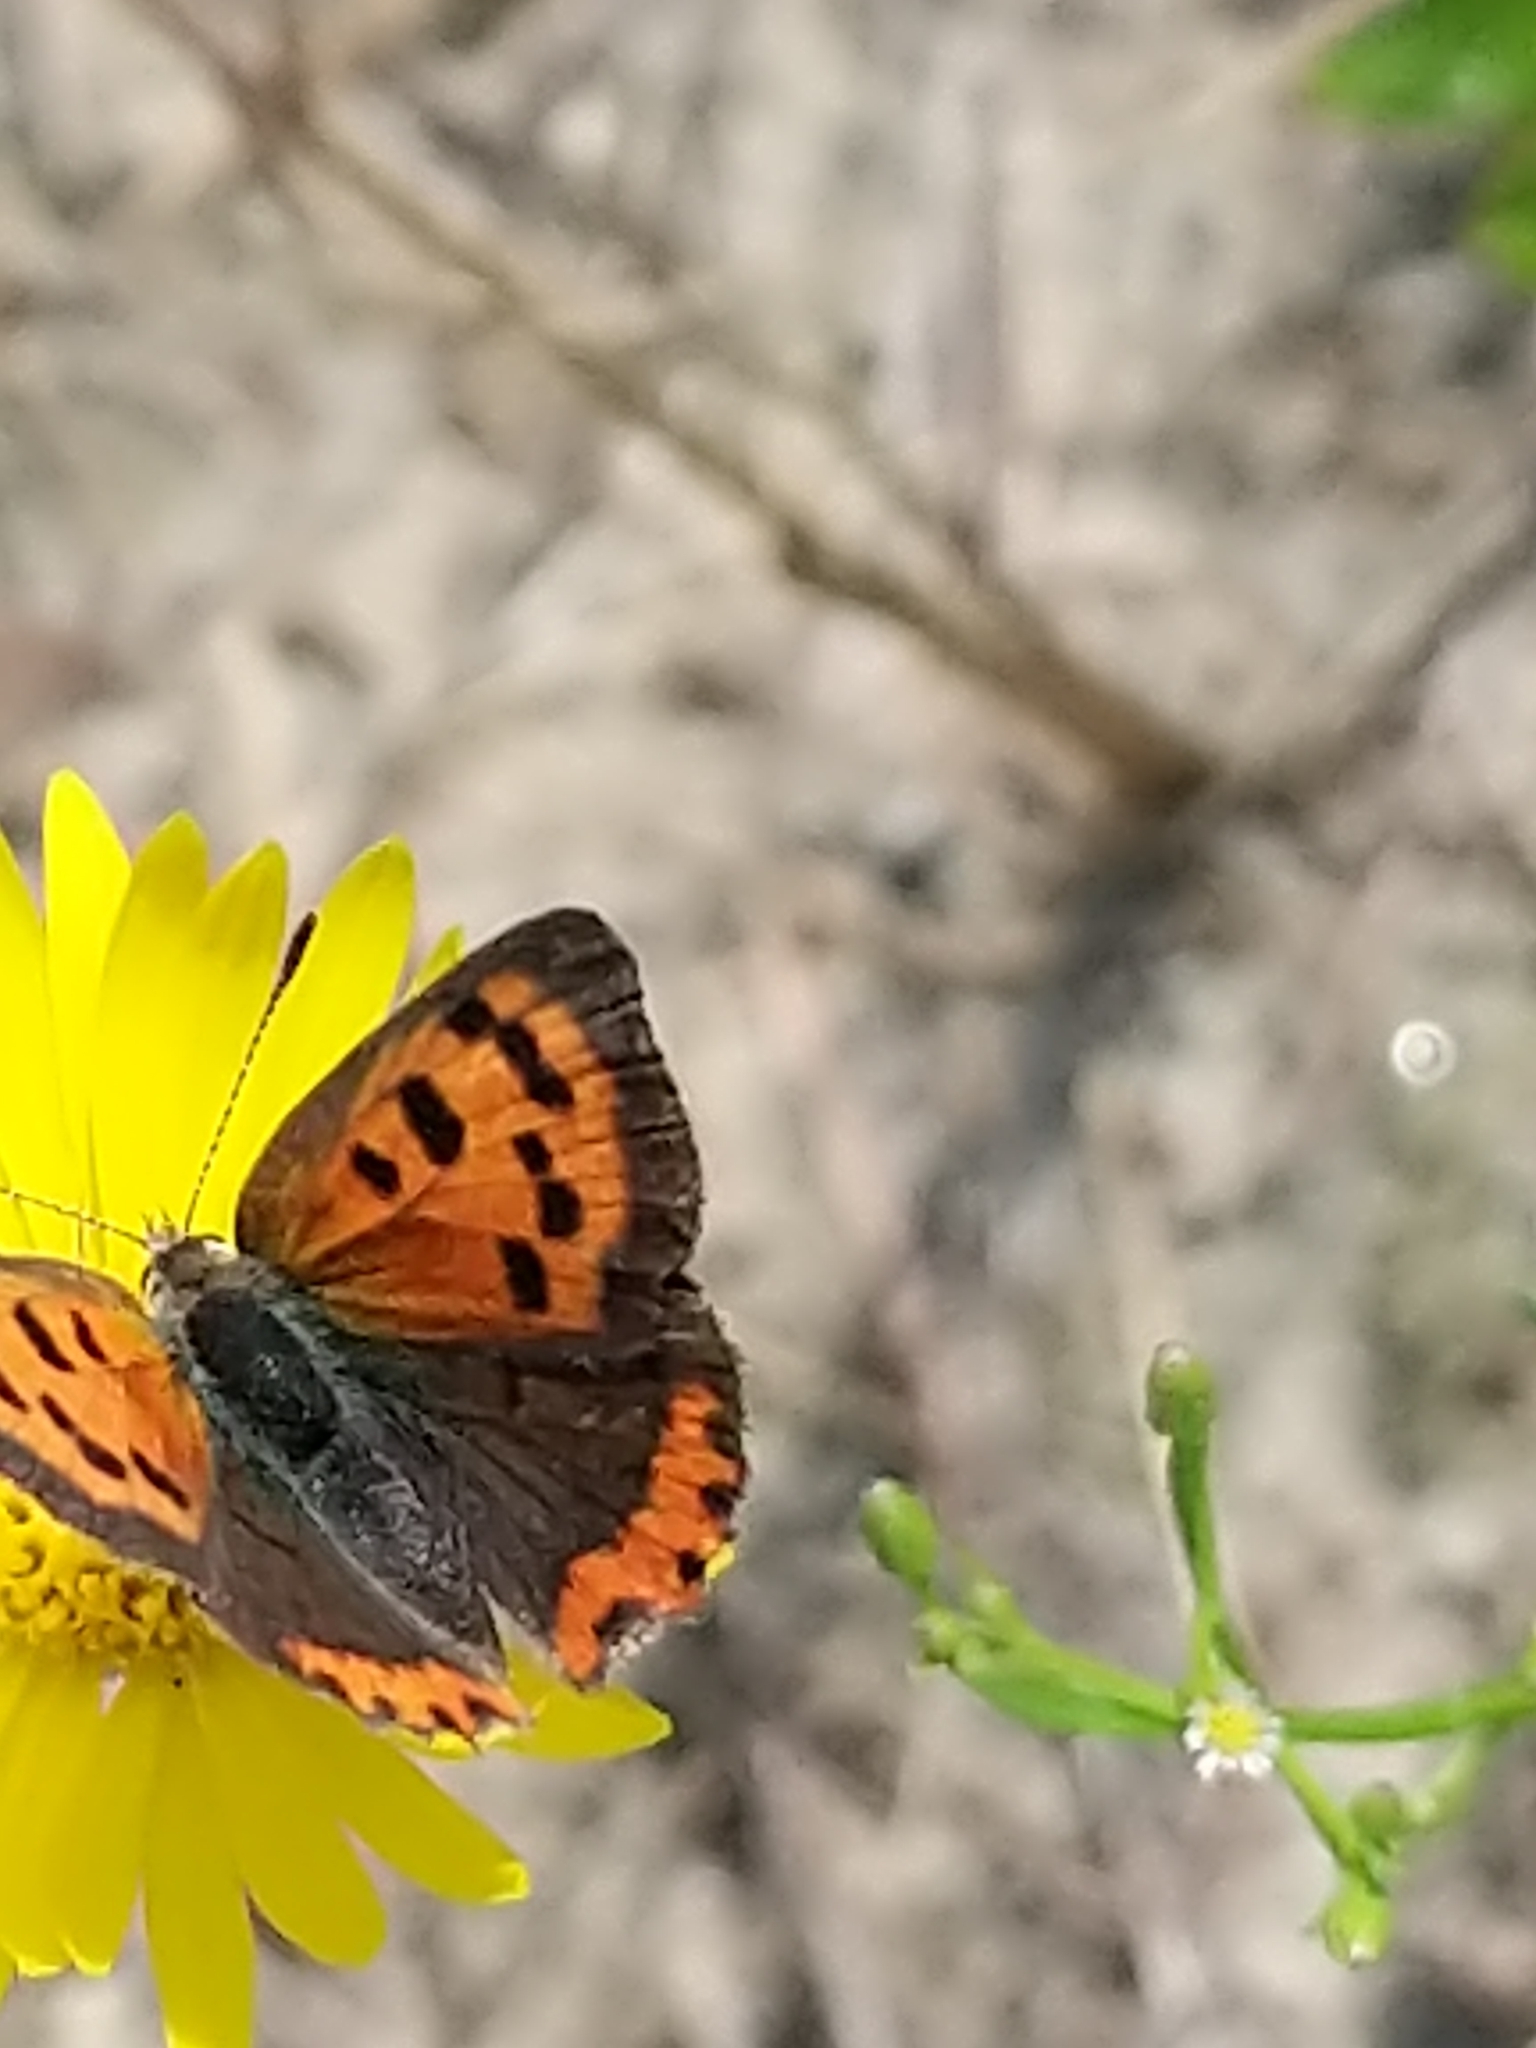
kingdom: Animalia
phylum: Arthropoda
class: Insecta
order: Lepidoptera
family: Lycaenidae
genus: Lycaena
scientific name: Lycaena hypophlaeas
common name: American copper
